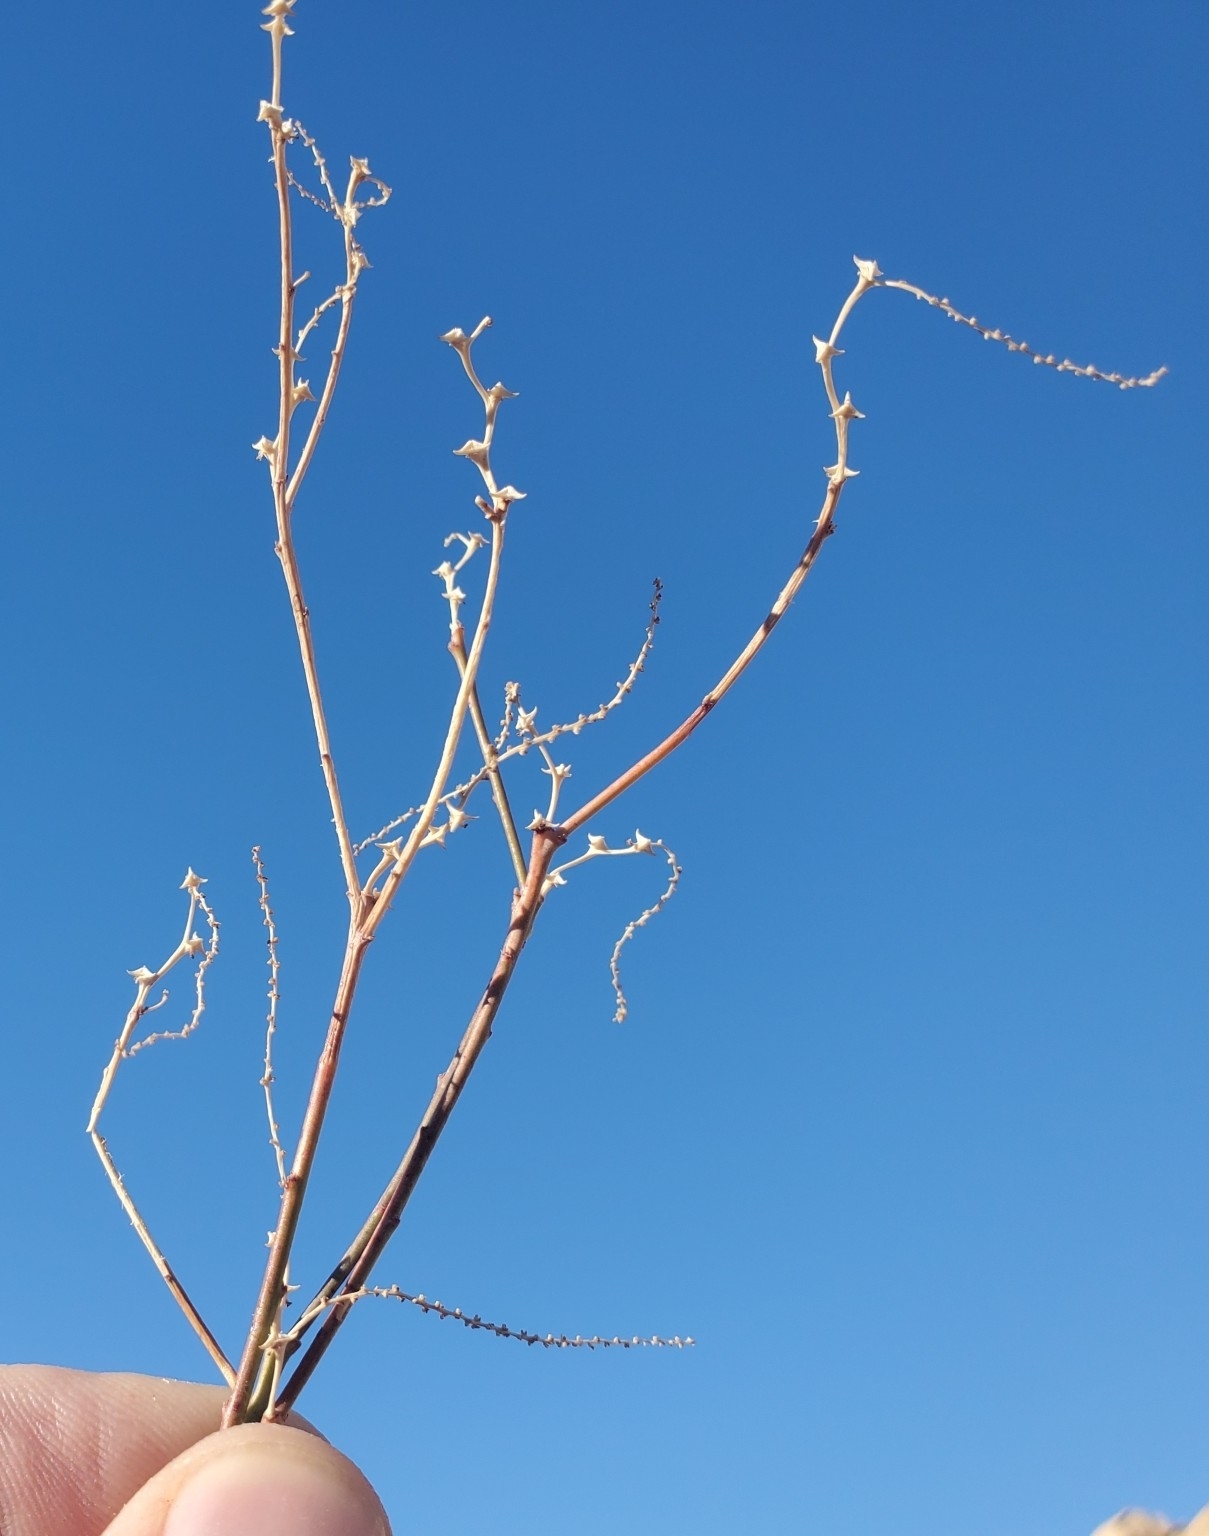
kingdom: Plantae
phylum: Tracheophyta
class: Magnoliopsida
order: Malpighiales
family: Euphorbiaceae
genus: Stillingia
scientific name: Stillingia linearifolia
